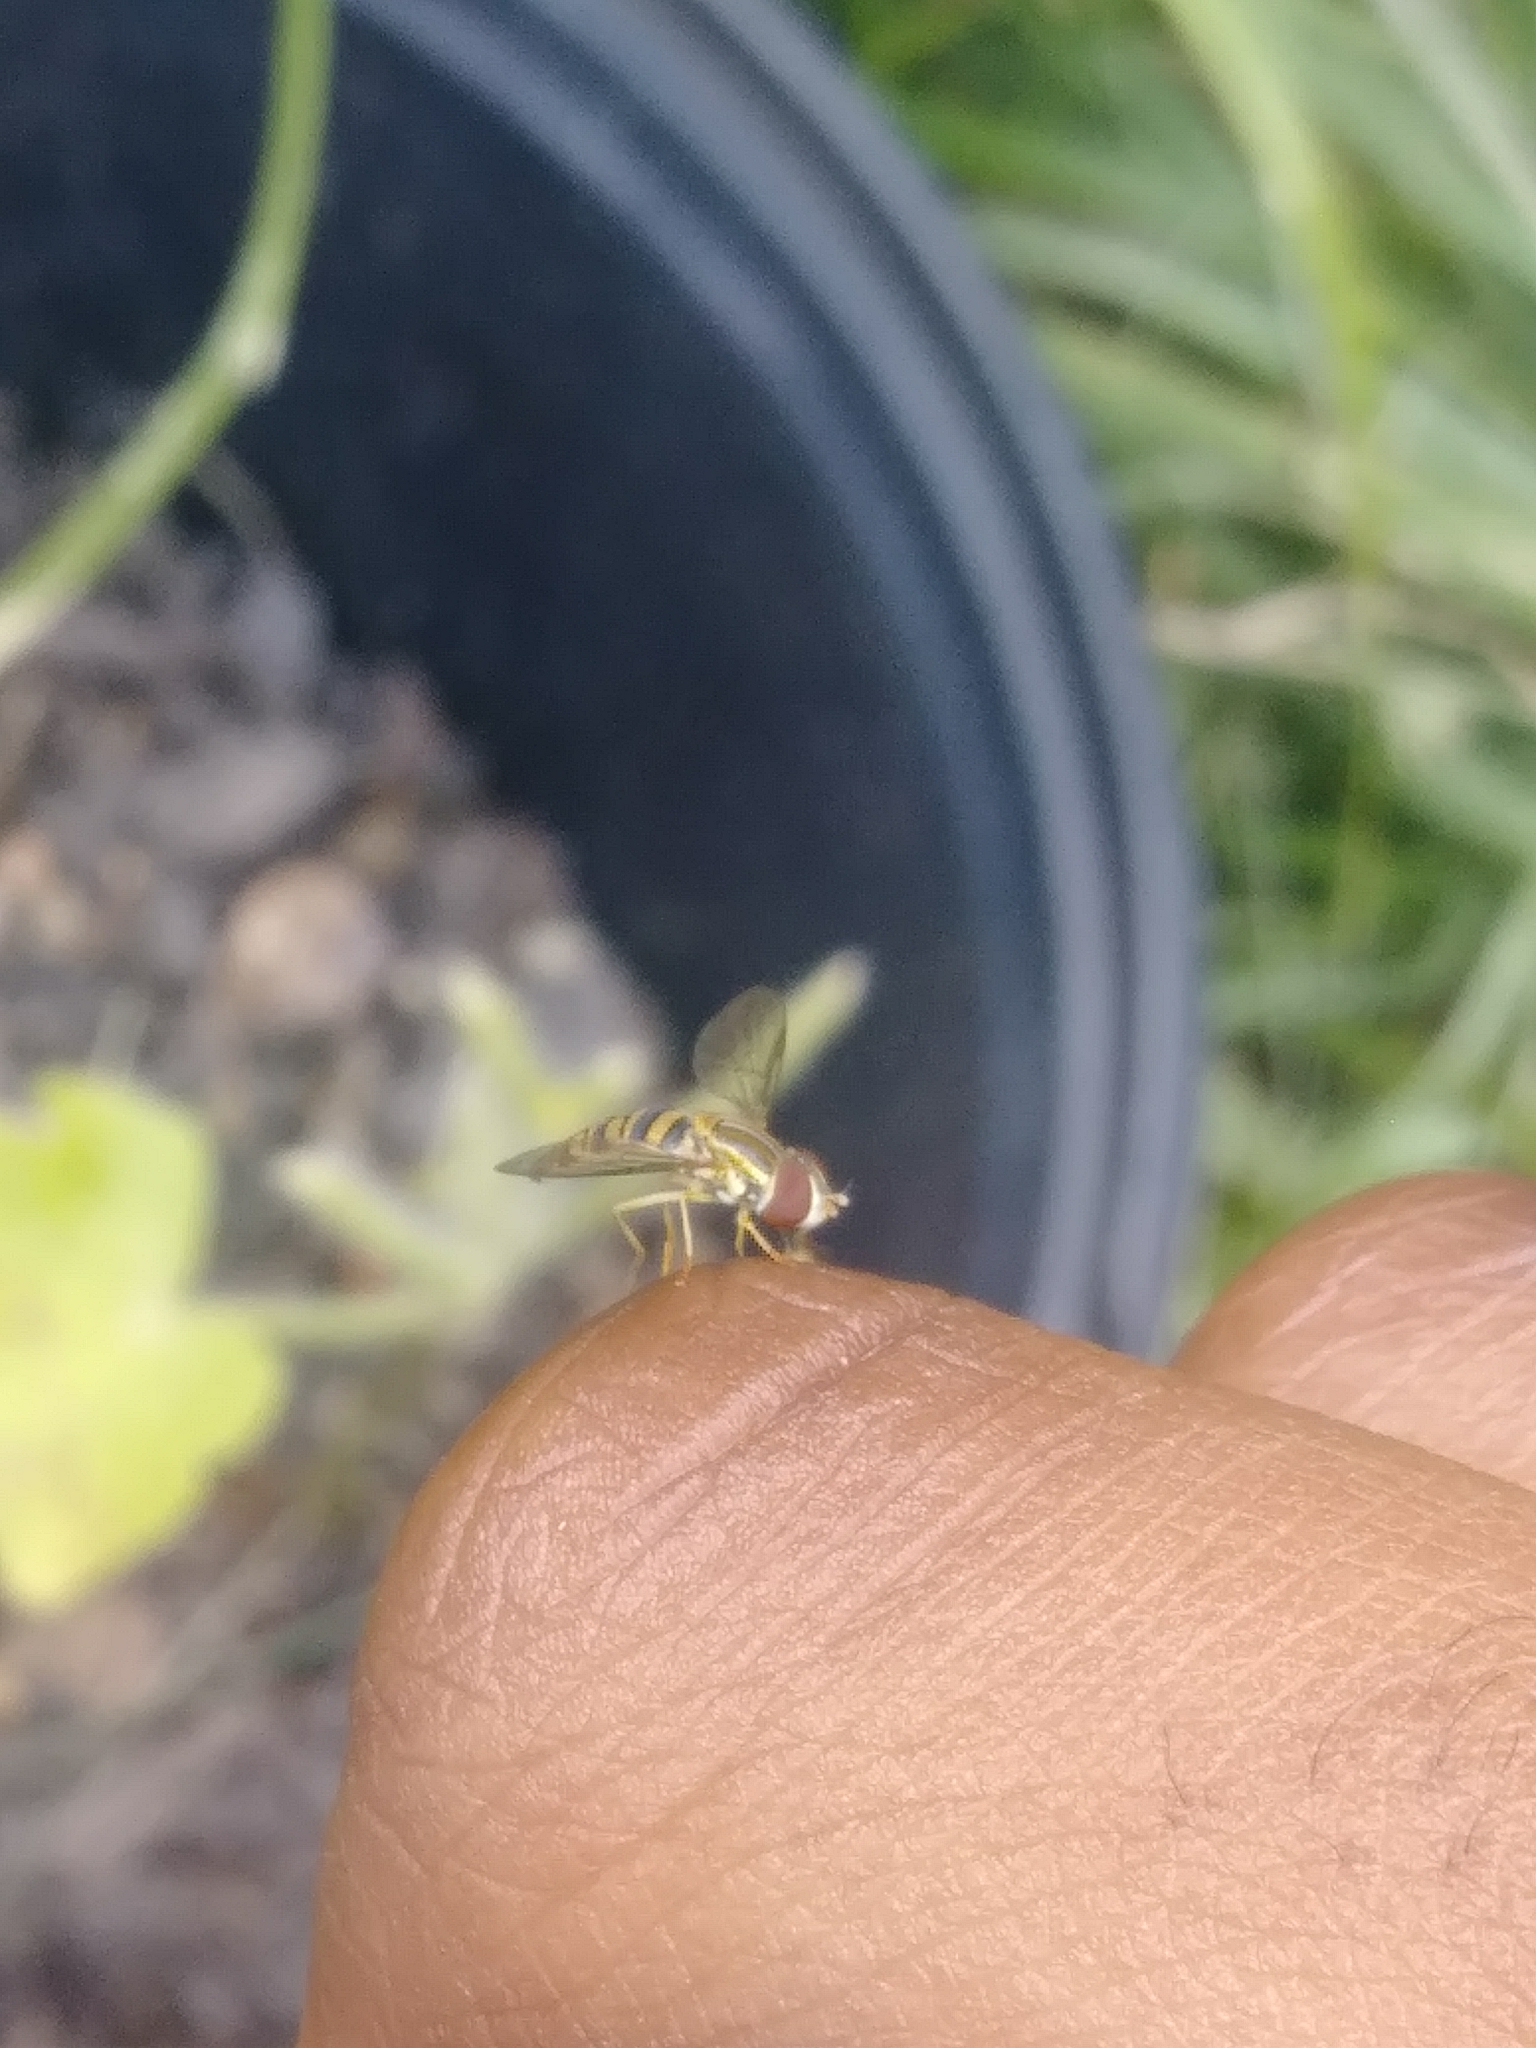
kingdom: Animalia
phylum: Arthropoda
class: Insecta
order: Diptera
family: Syrphidae
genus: Toxomerus
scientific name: Toxomerus politus
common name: Maize calligrapher
